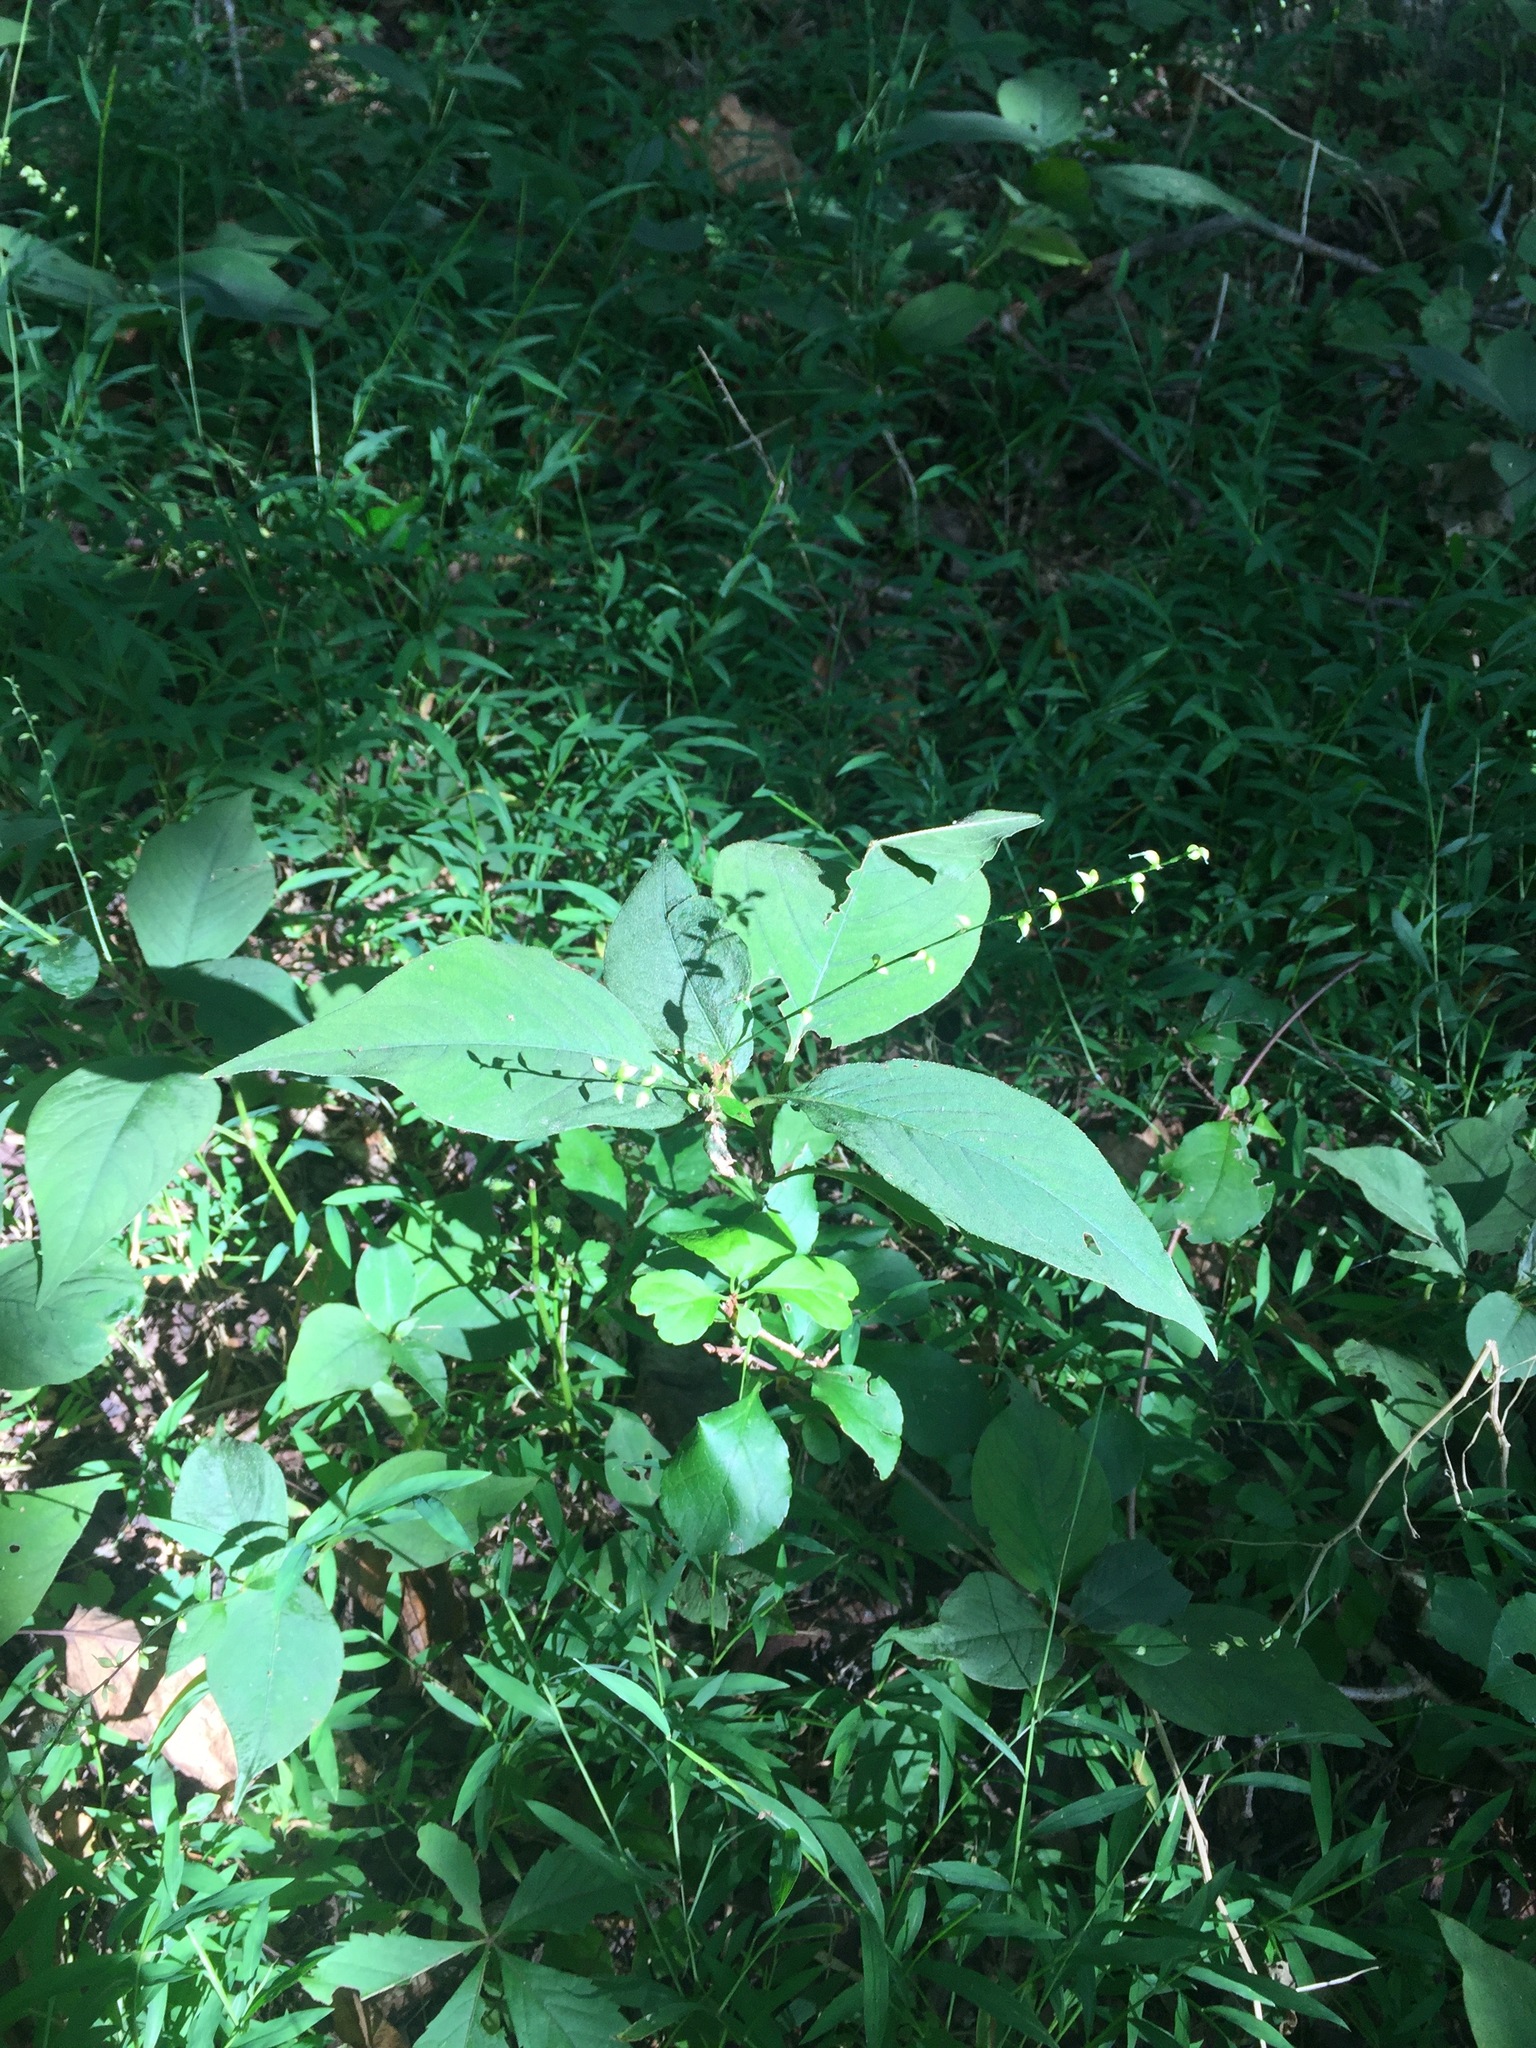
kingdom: Plantae
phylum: Tracheophyta
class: Magnoliopsida
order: Caryophyllales
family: Polygonaceae
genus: Persicaria
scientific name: Persicaria virginiana
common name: Jumpseed
